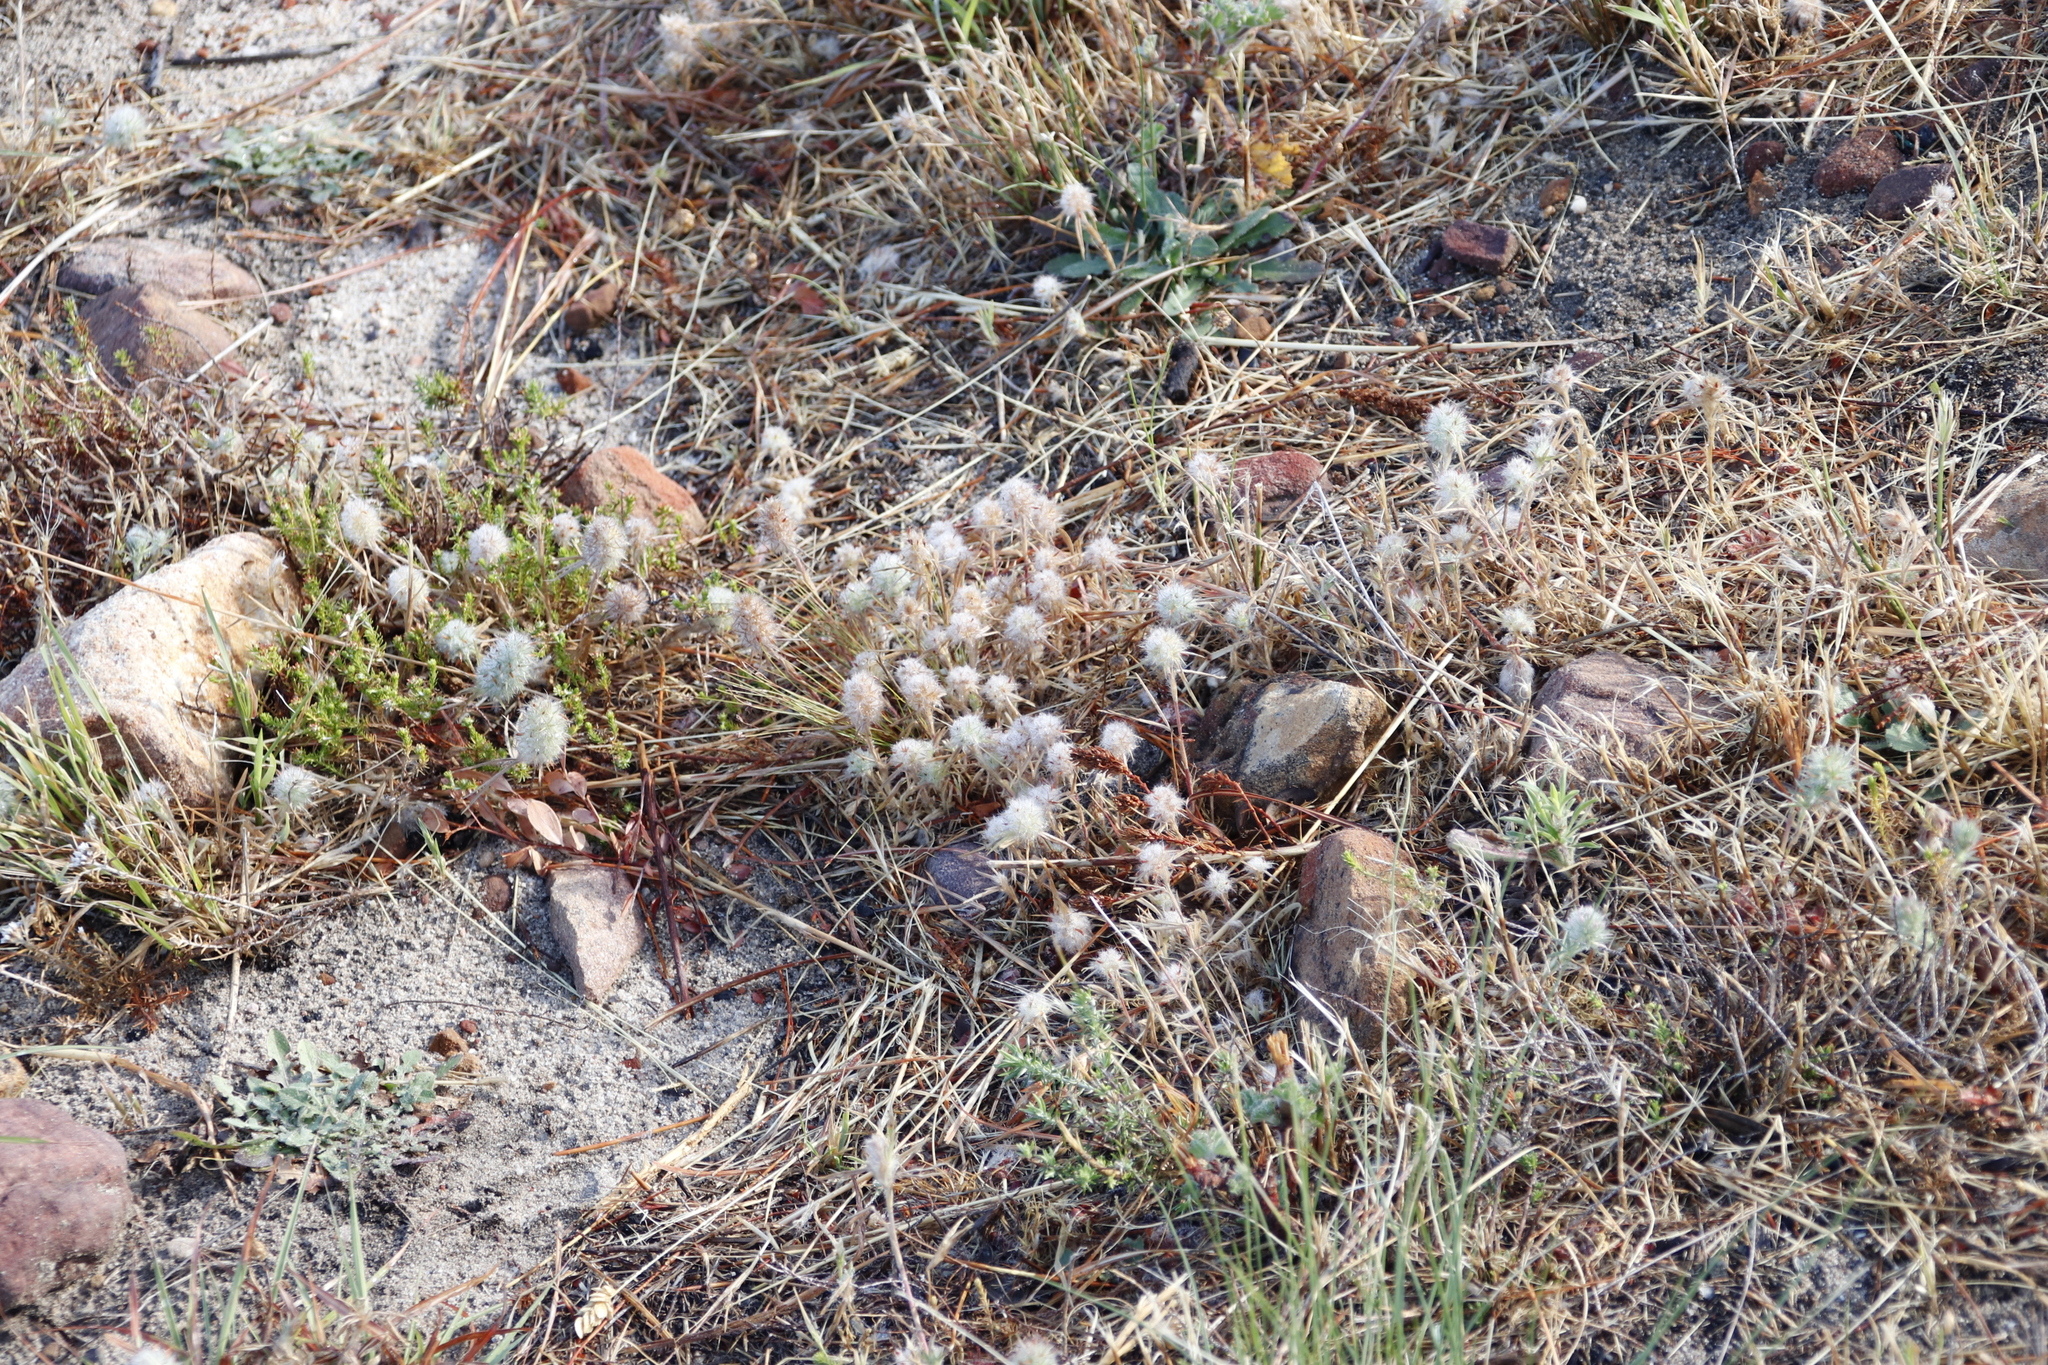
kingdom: Plantae
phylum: Tracheophyta
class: Magnoliopsida
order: Fabales
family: Fabaceae
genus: Trifolium
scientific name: Trifolium angustifolium
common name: Narrow clover
